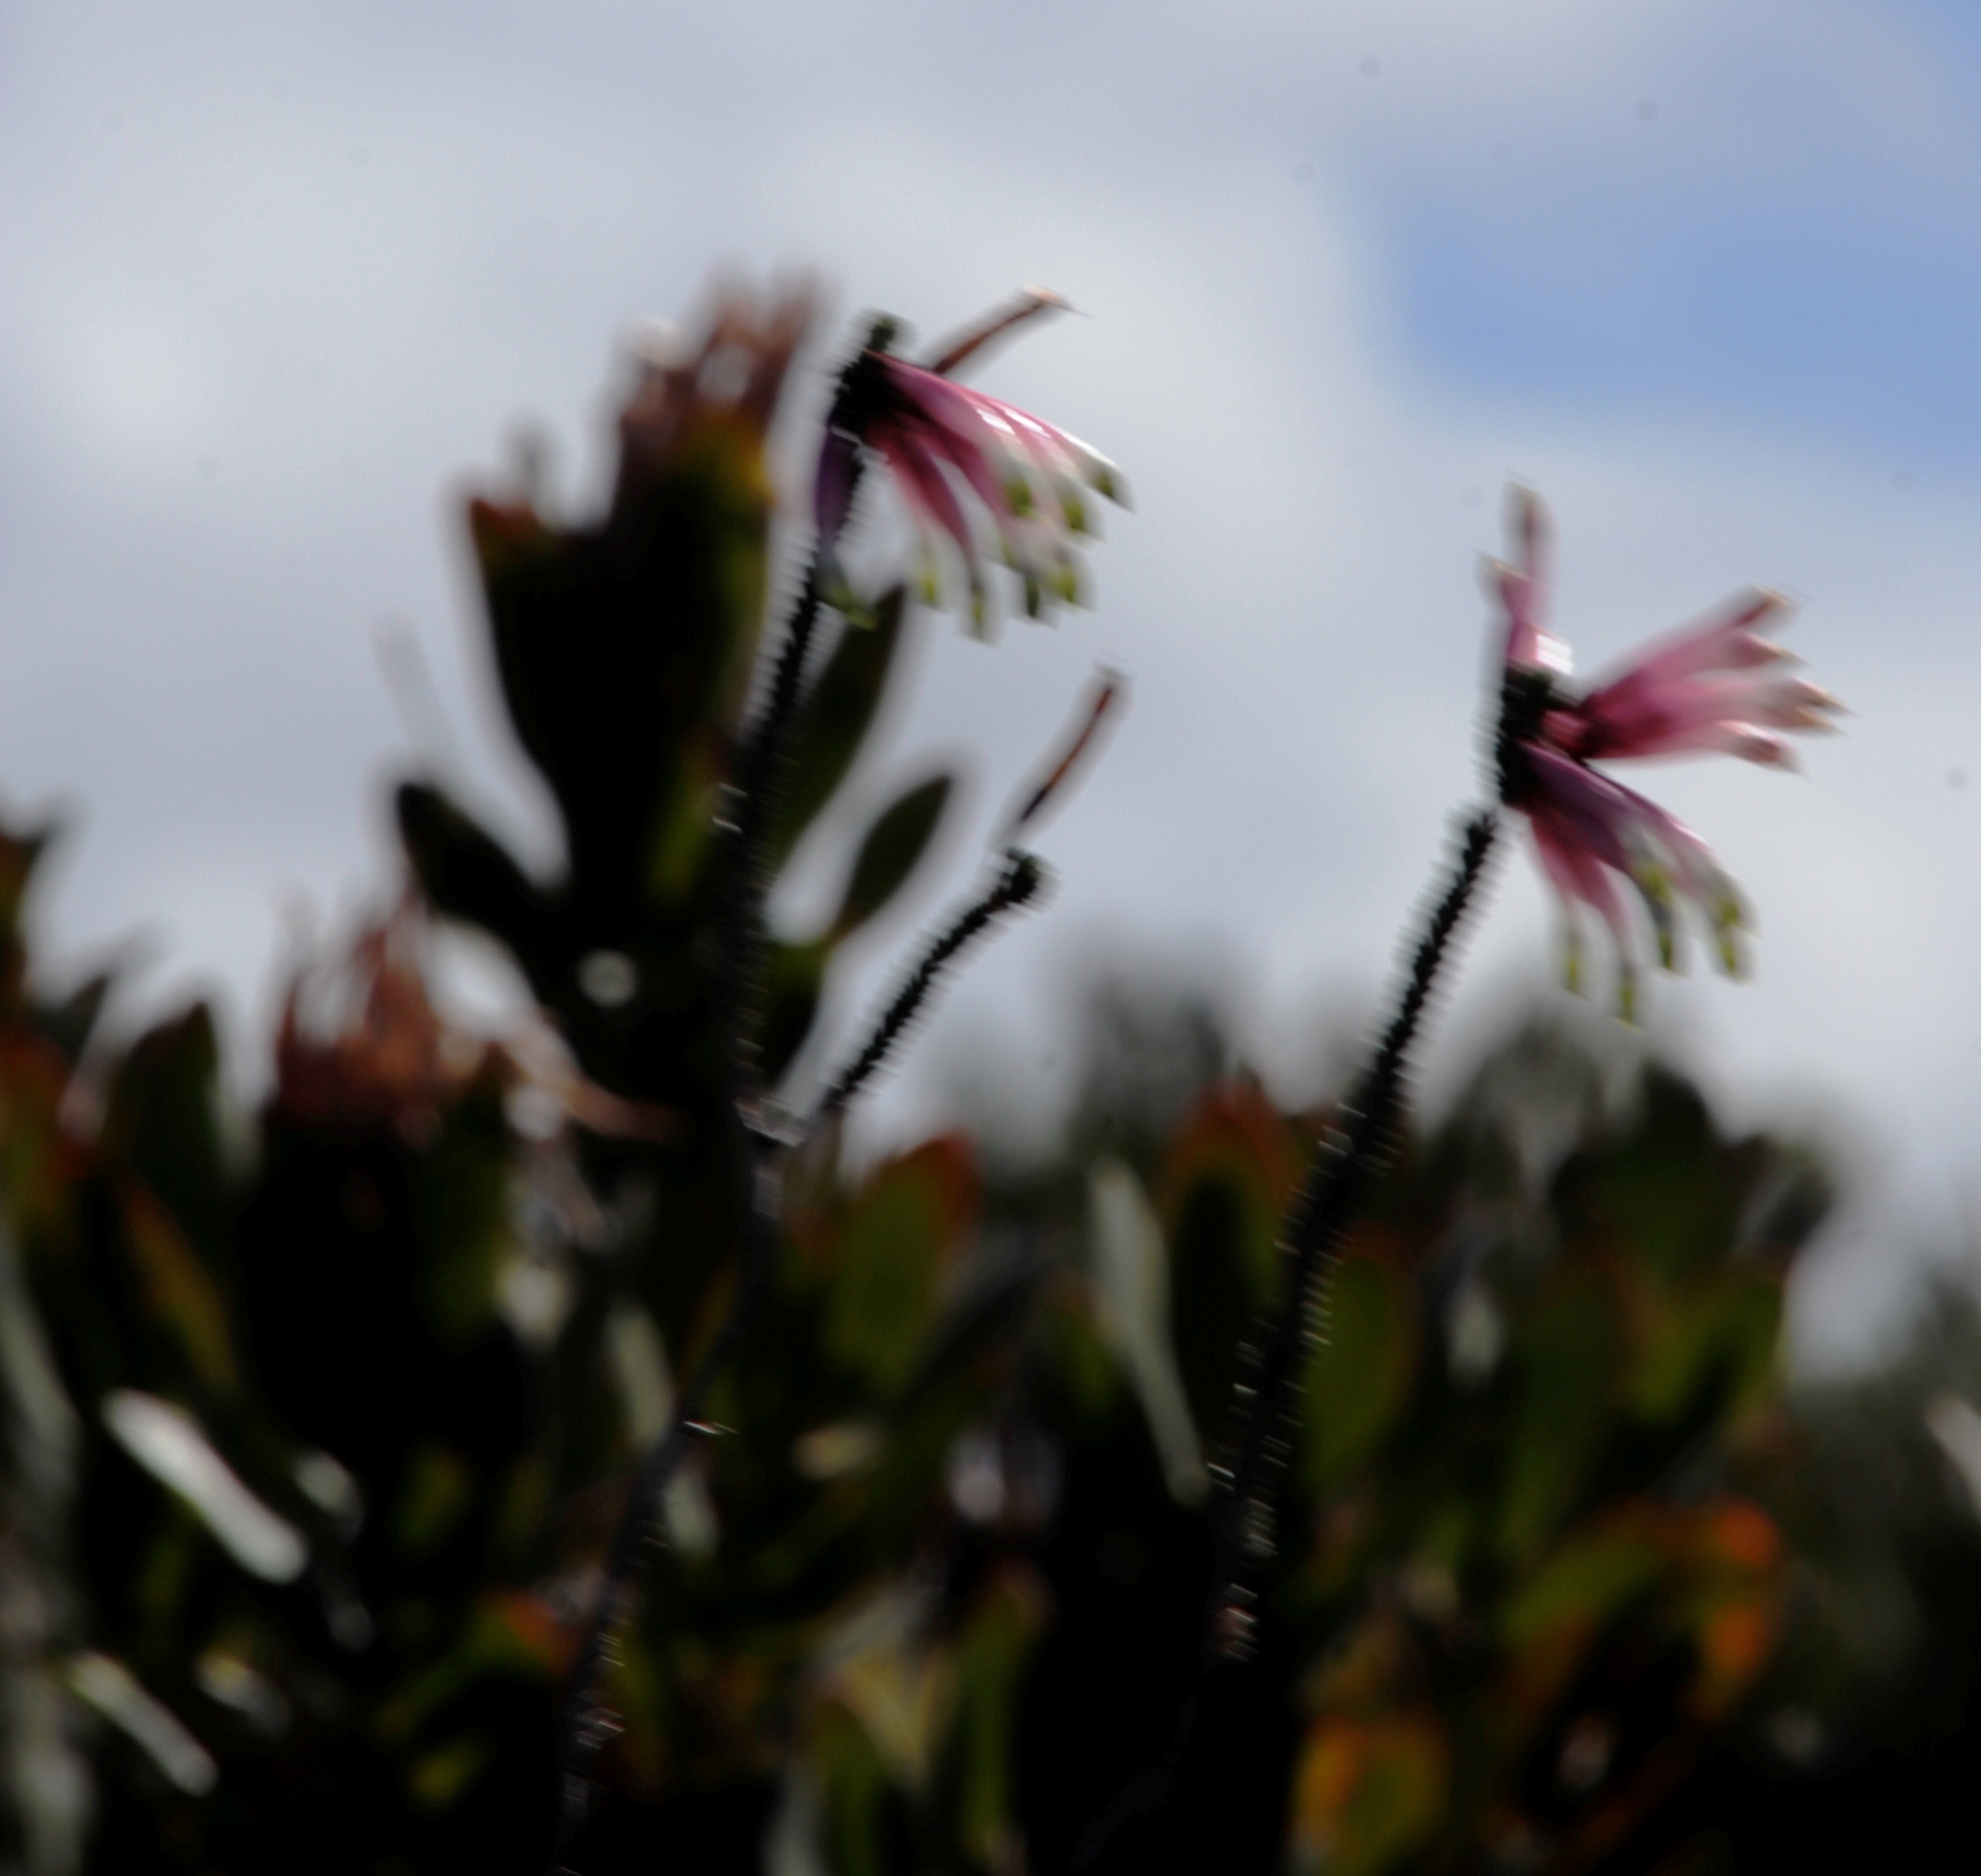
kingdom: Plantae
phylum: Tracheophyta
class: Magnoliopsida
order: Ericales
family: Ericaceae
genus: Erica
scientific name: Erica fascicularis
